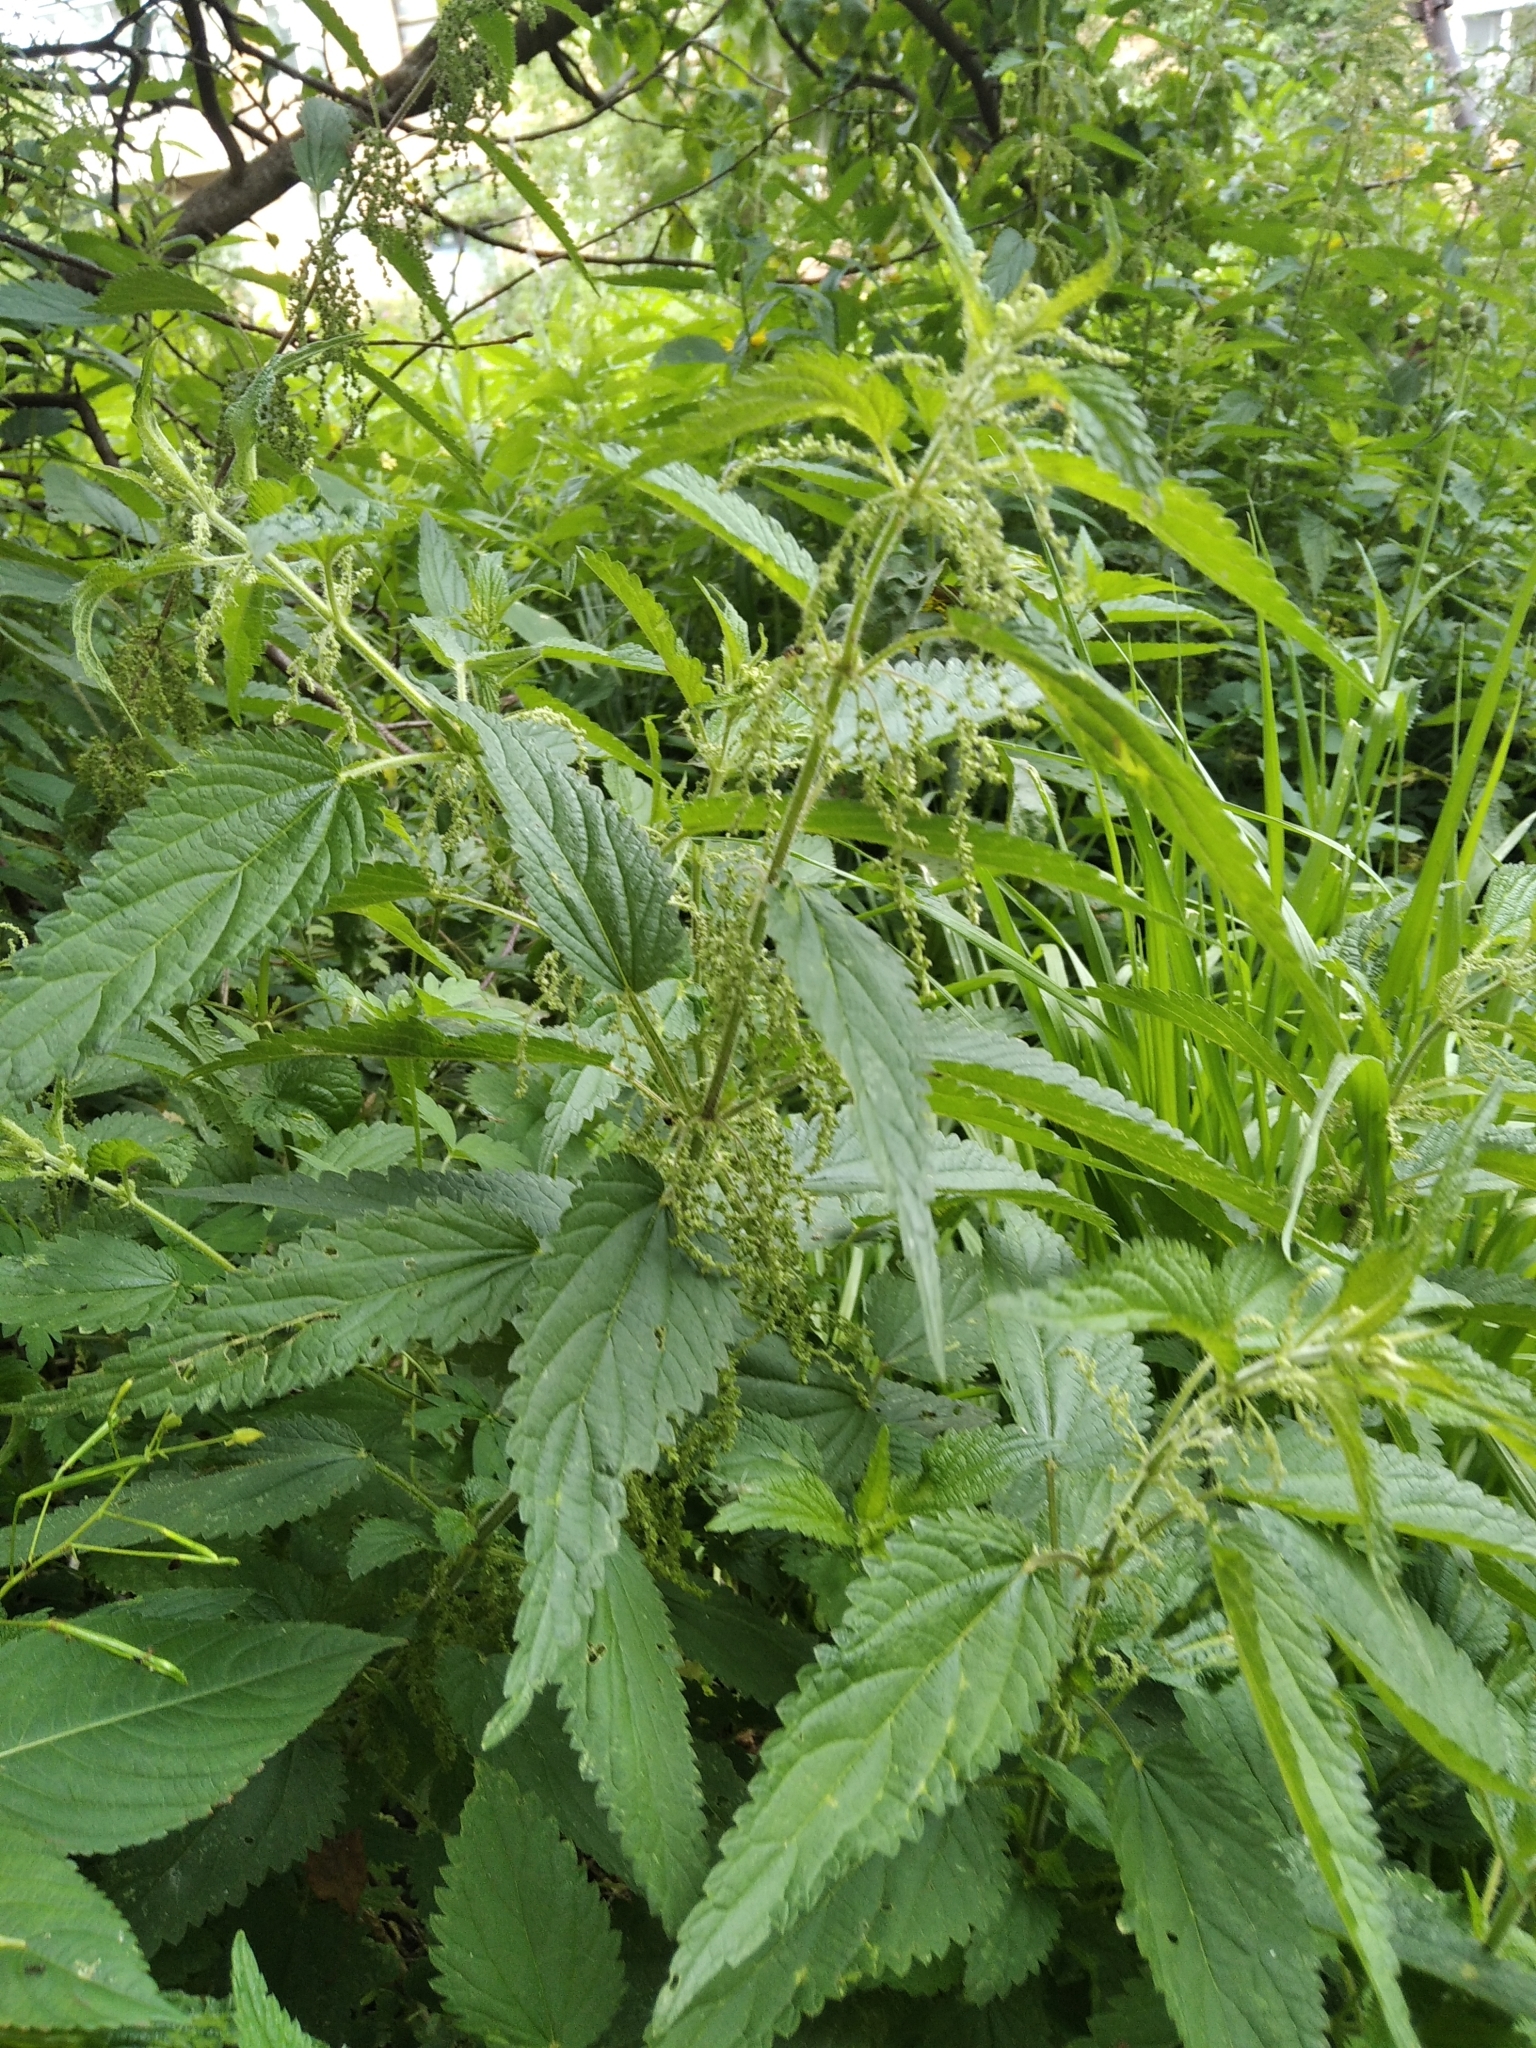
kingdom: Plantae
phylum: Tracheophyta
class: Magnoliopsida
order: Rosales
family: Urticaceae
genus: Urtica
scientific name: Urtica dioica
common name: Common nettle
